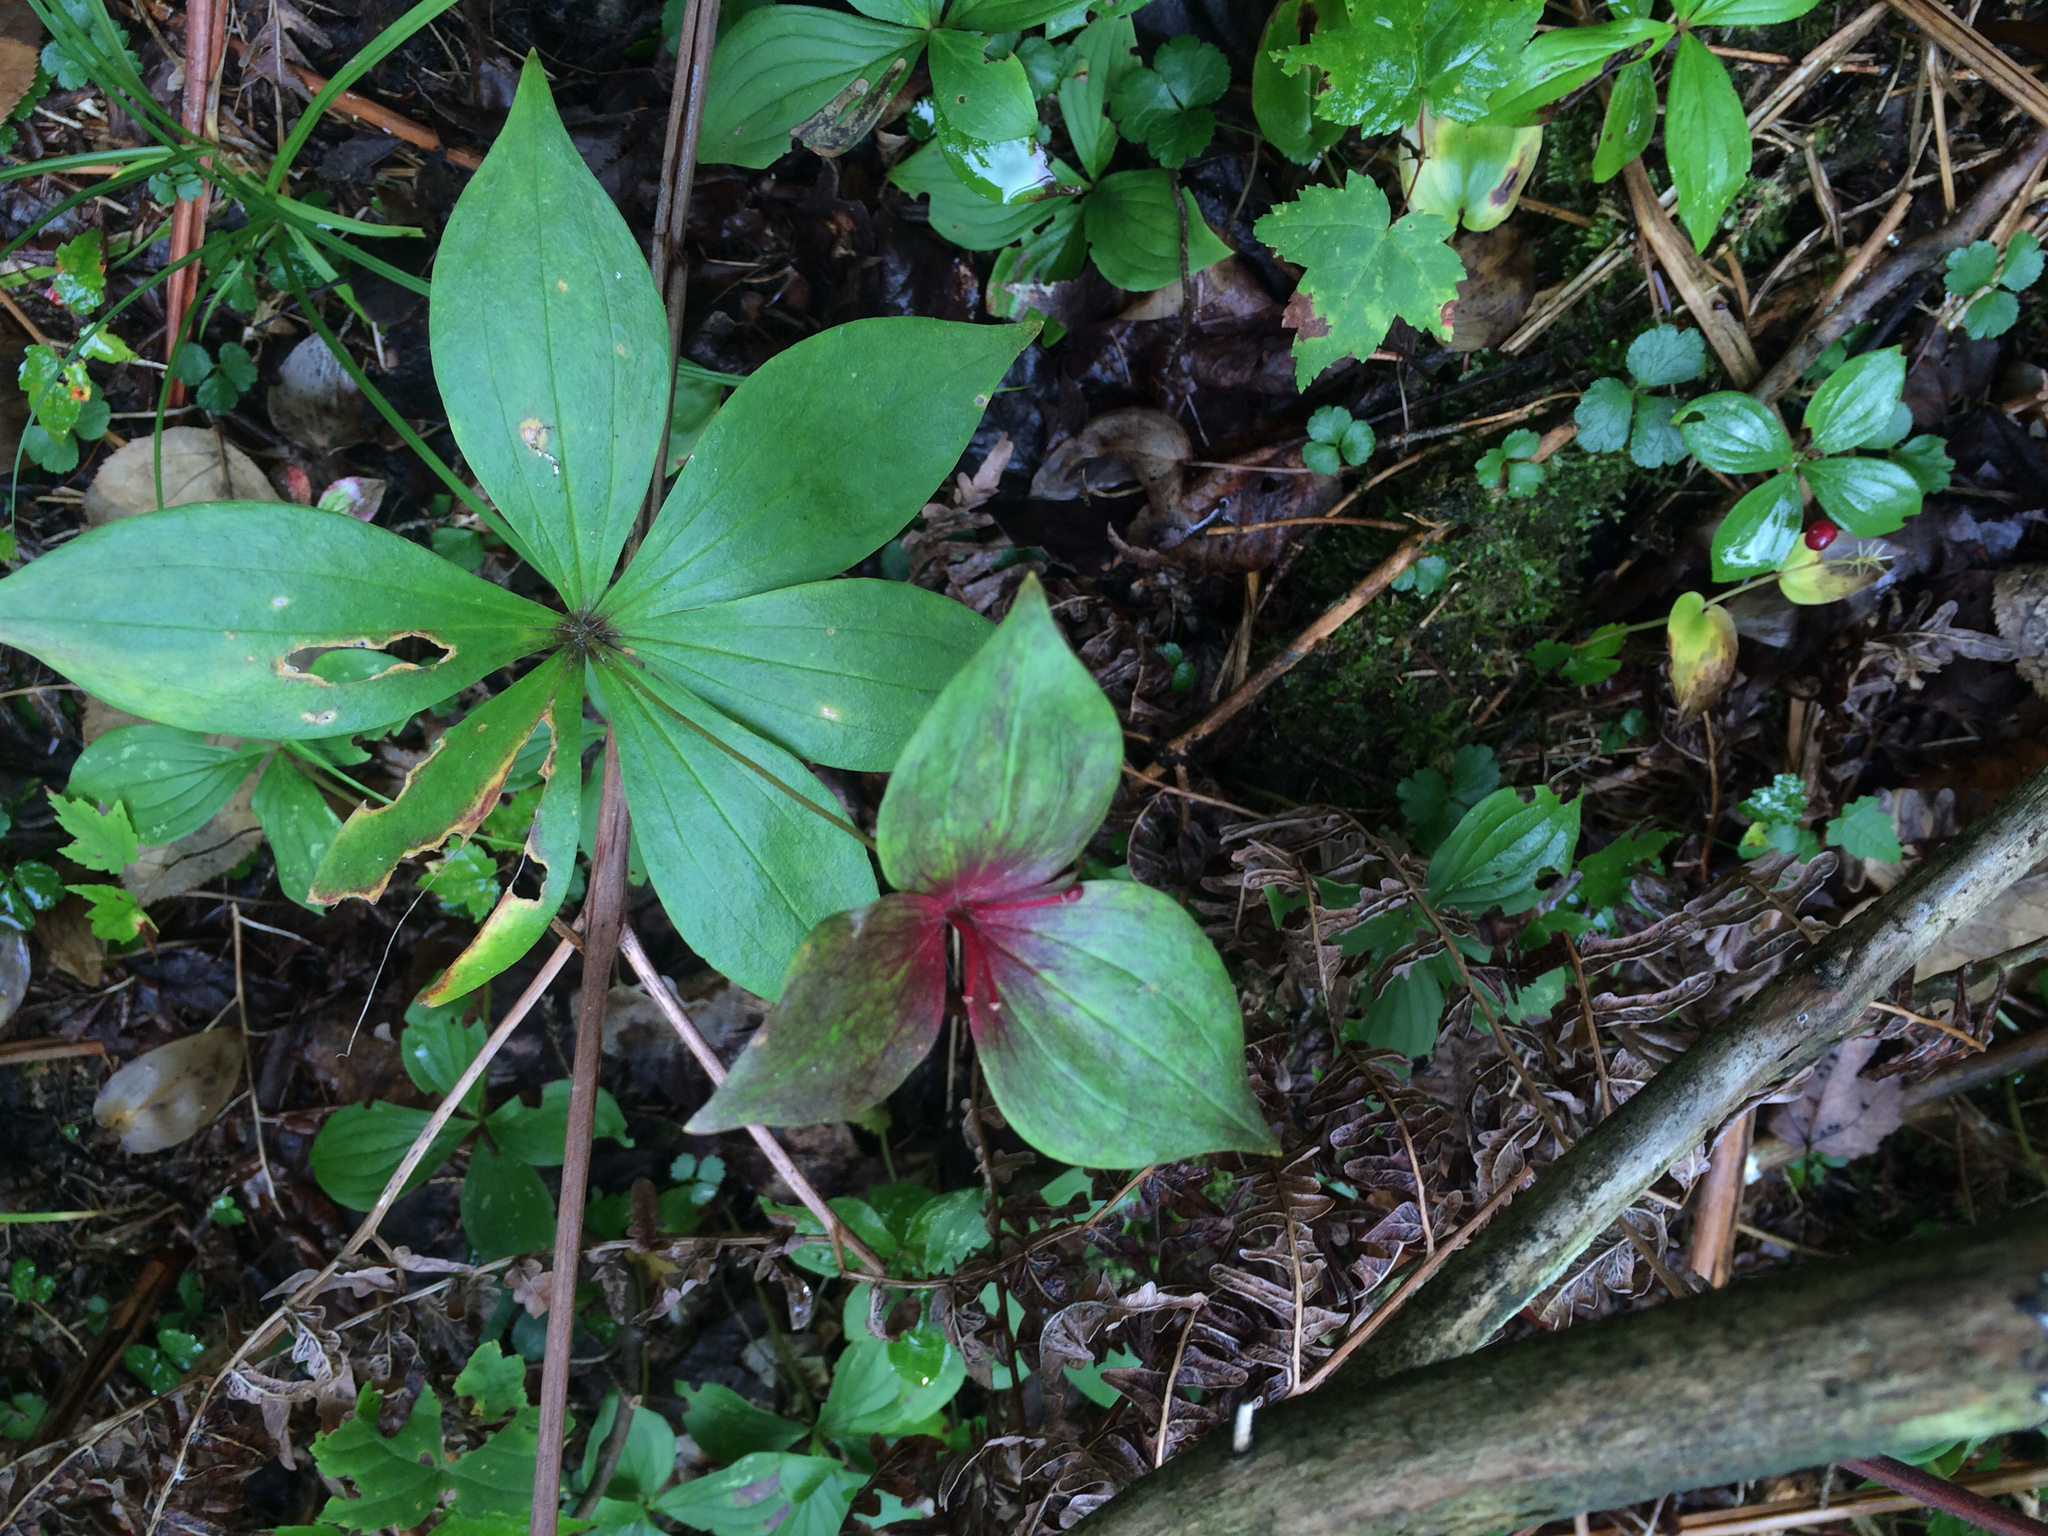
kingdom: Plantae
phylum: Tracheophyta
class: Liliopsida
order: Liliales
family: Liliaceae
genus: Medeola
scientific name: Medeola virginiana
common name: Indian cucumber-root
